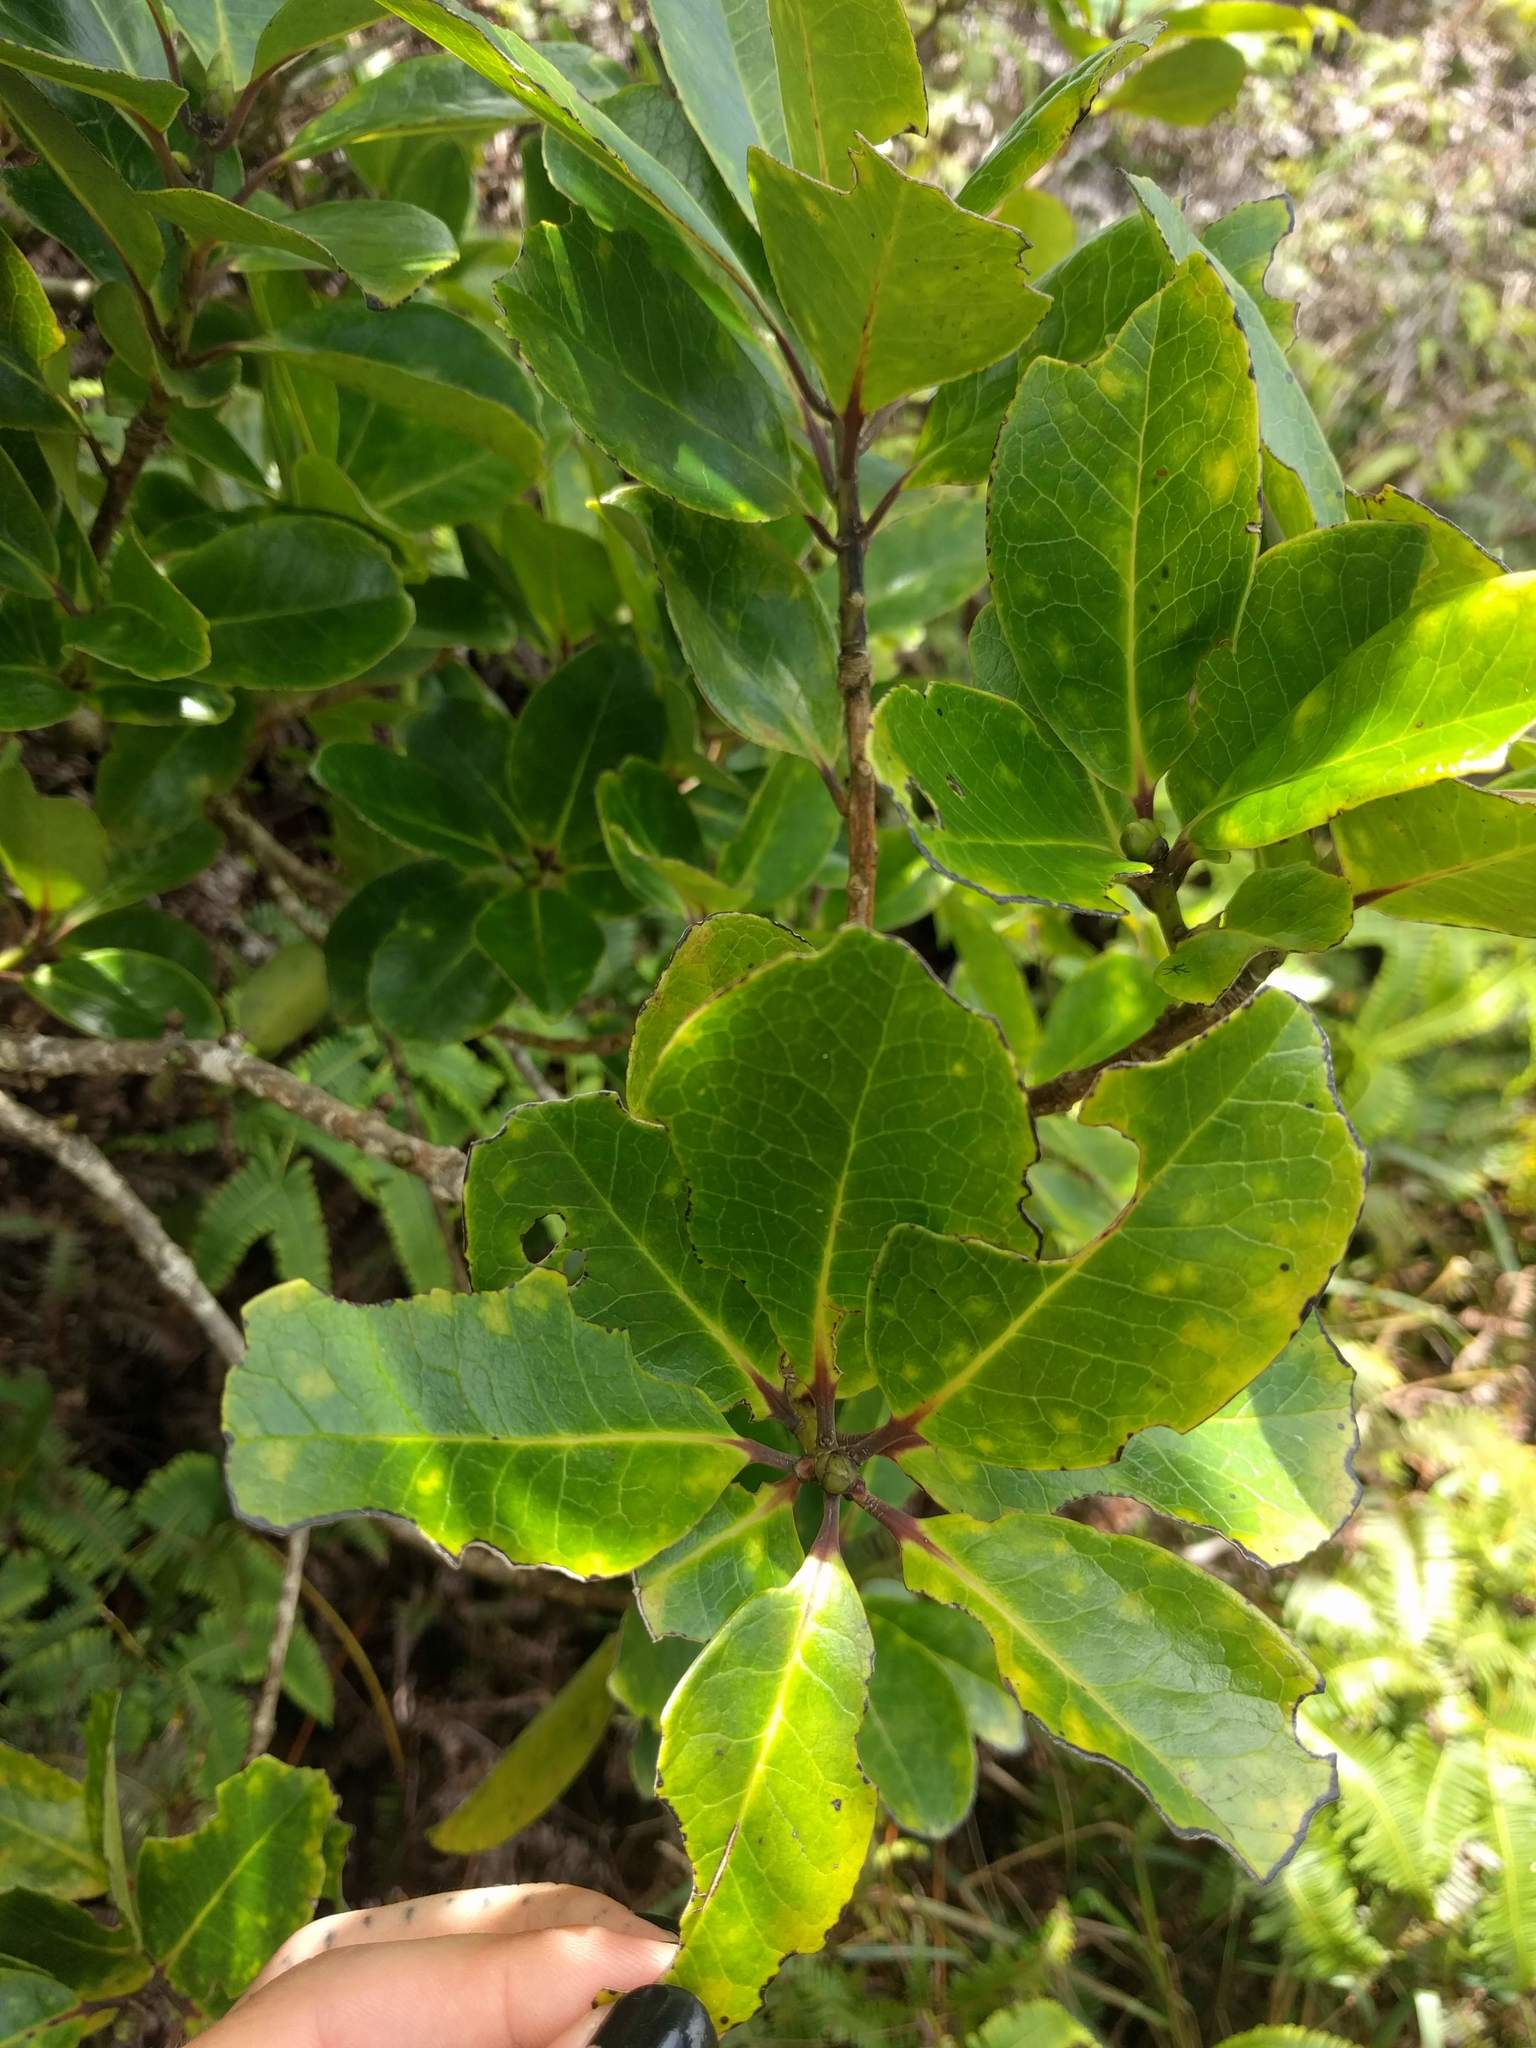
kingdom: Plantae
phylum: Tracheophyta
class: Magnoliopsida
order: Aquifoliales
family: Aquifoliaceae
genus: Ilex
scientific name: Ilex anomala
